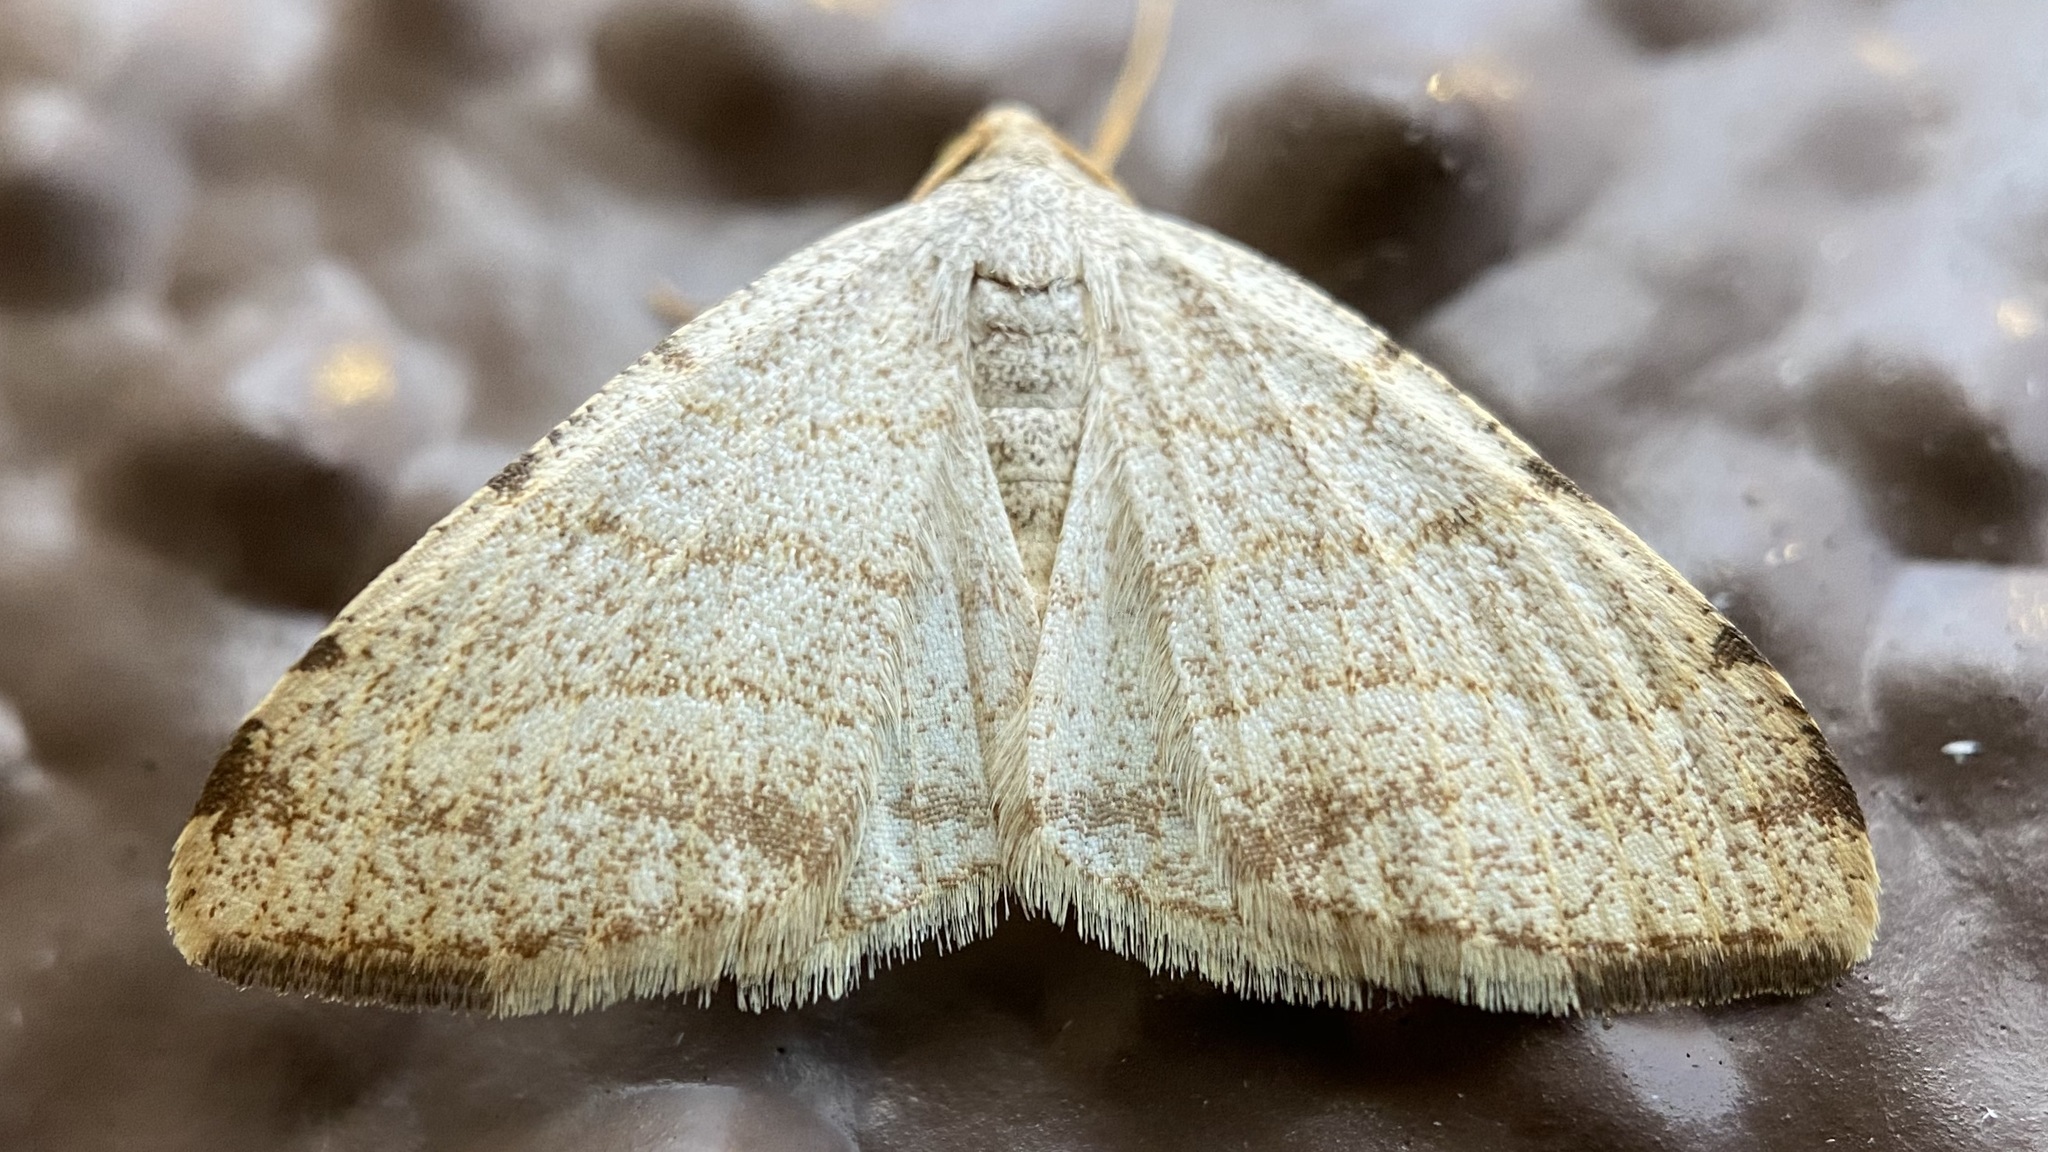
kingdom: Animalia
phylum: Arthropoda
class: Insecta
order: Lepidoptera
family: Geometridae
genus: Macaria
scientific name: Macaria octolineata
